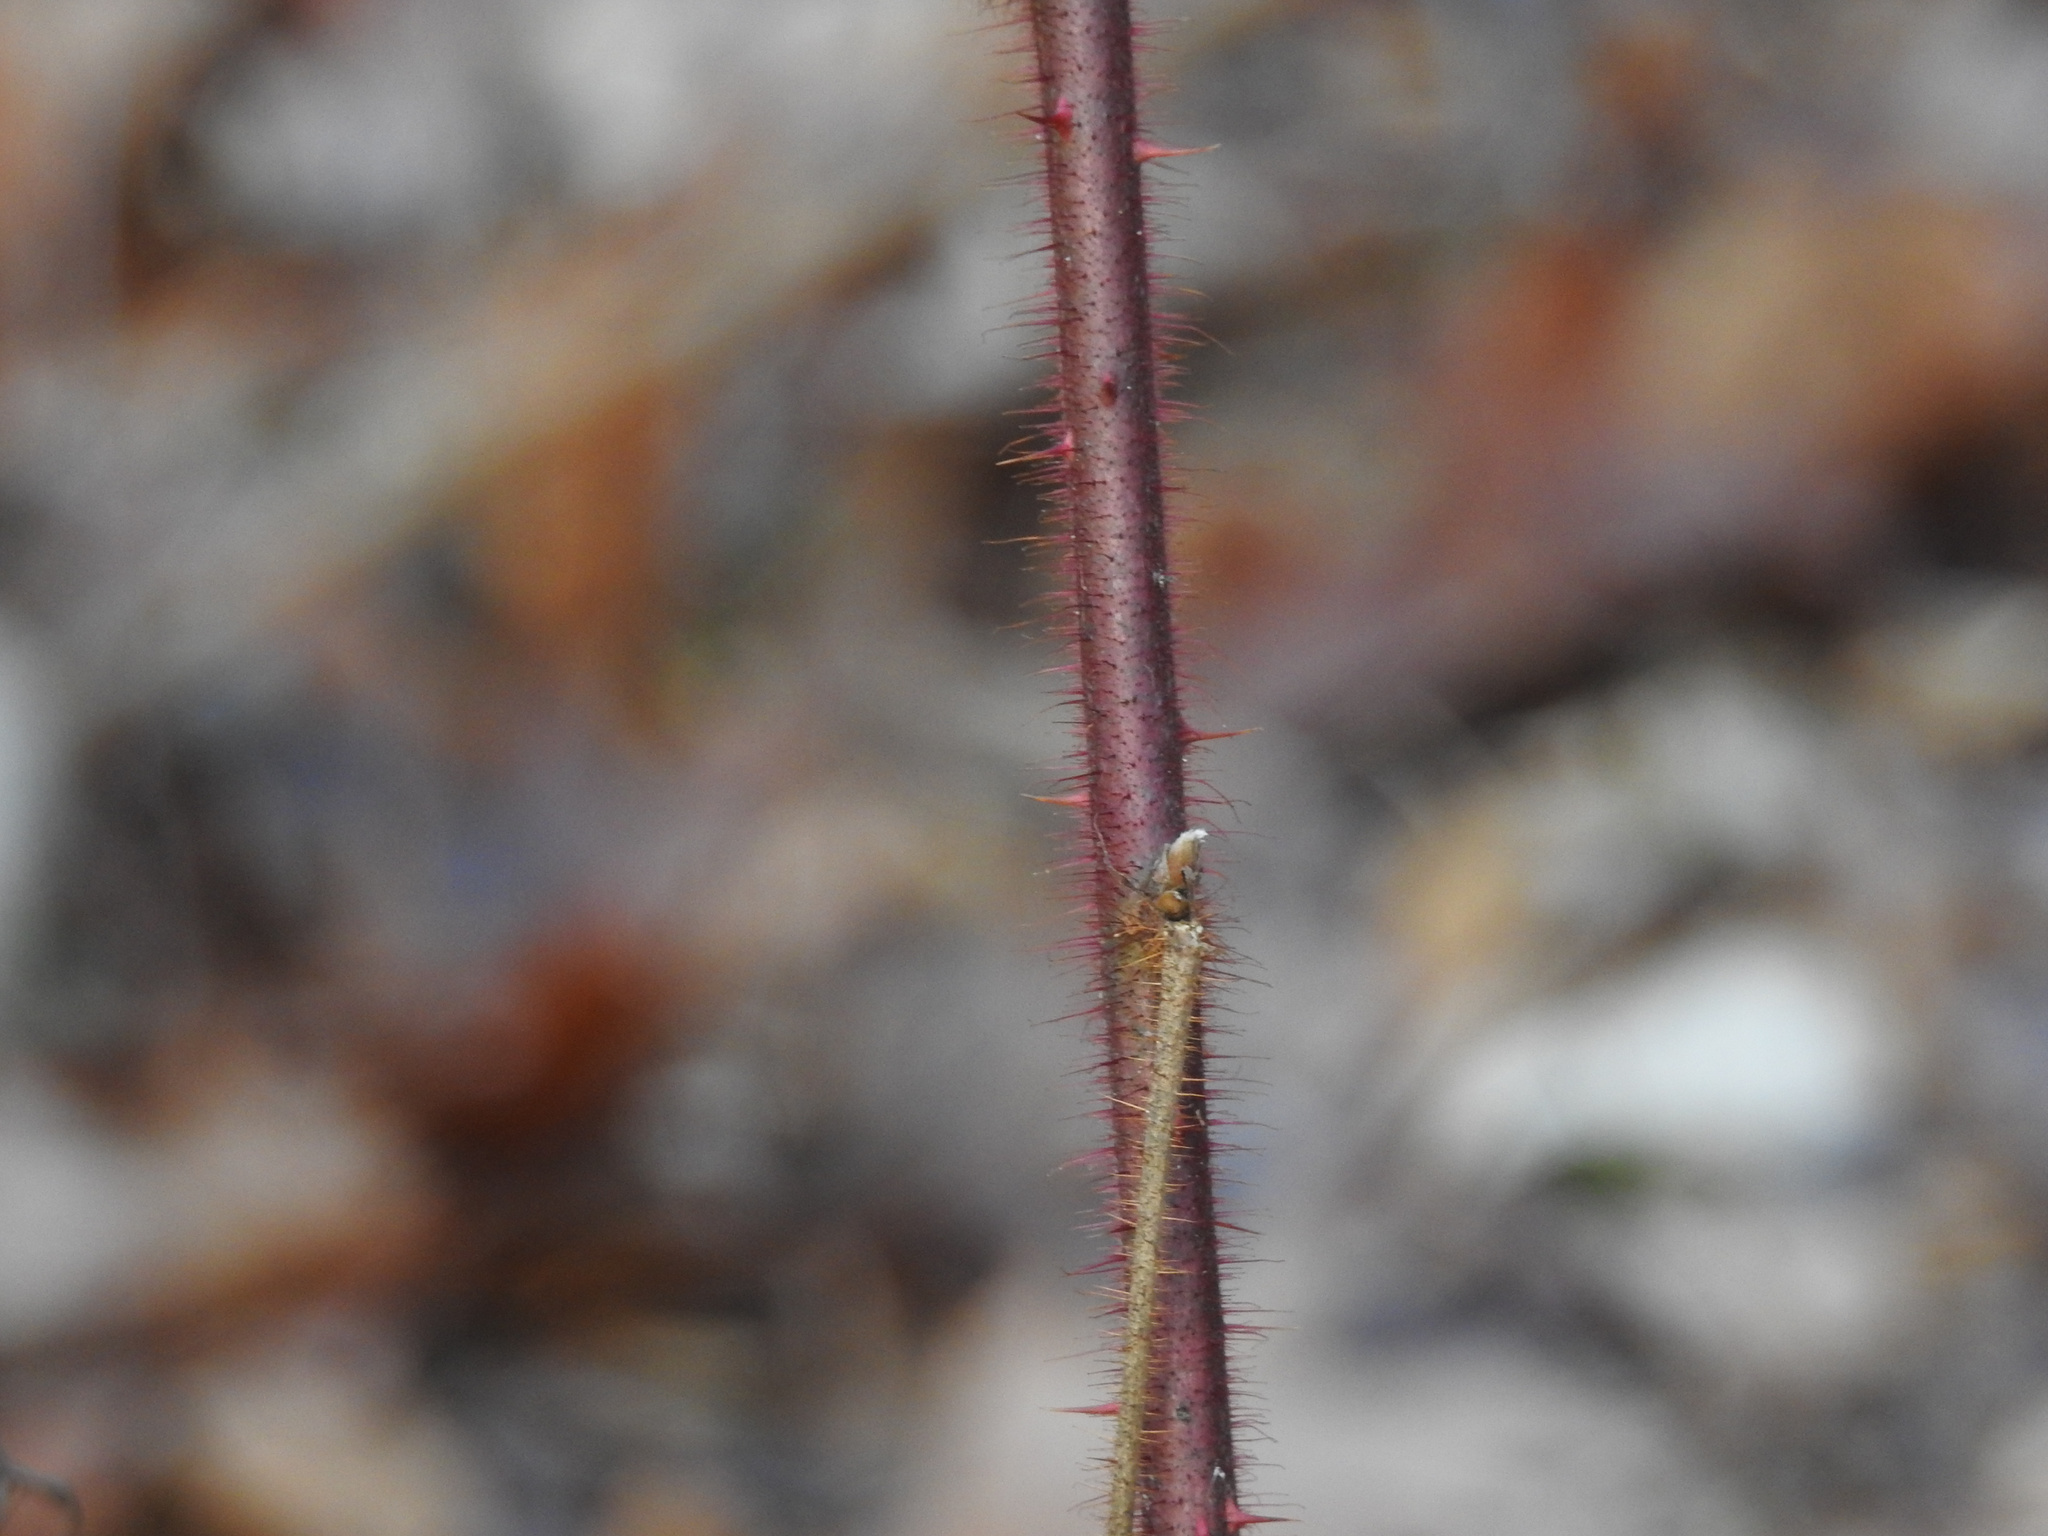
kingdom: Plantae
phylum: Tracheophyta
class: Magnoliopsida
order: Rosales
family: Rosaceae
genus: Rubus
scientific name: Rubus phoenicolasius
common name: Japanese wineberry
